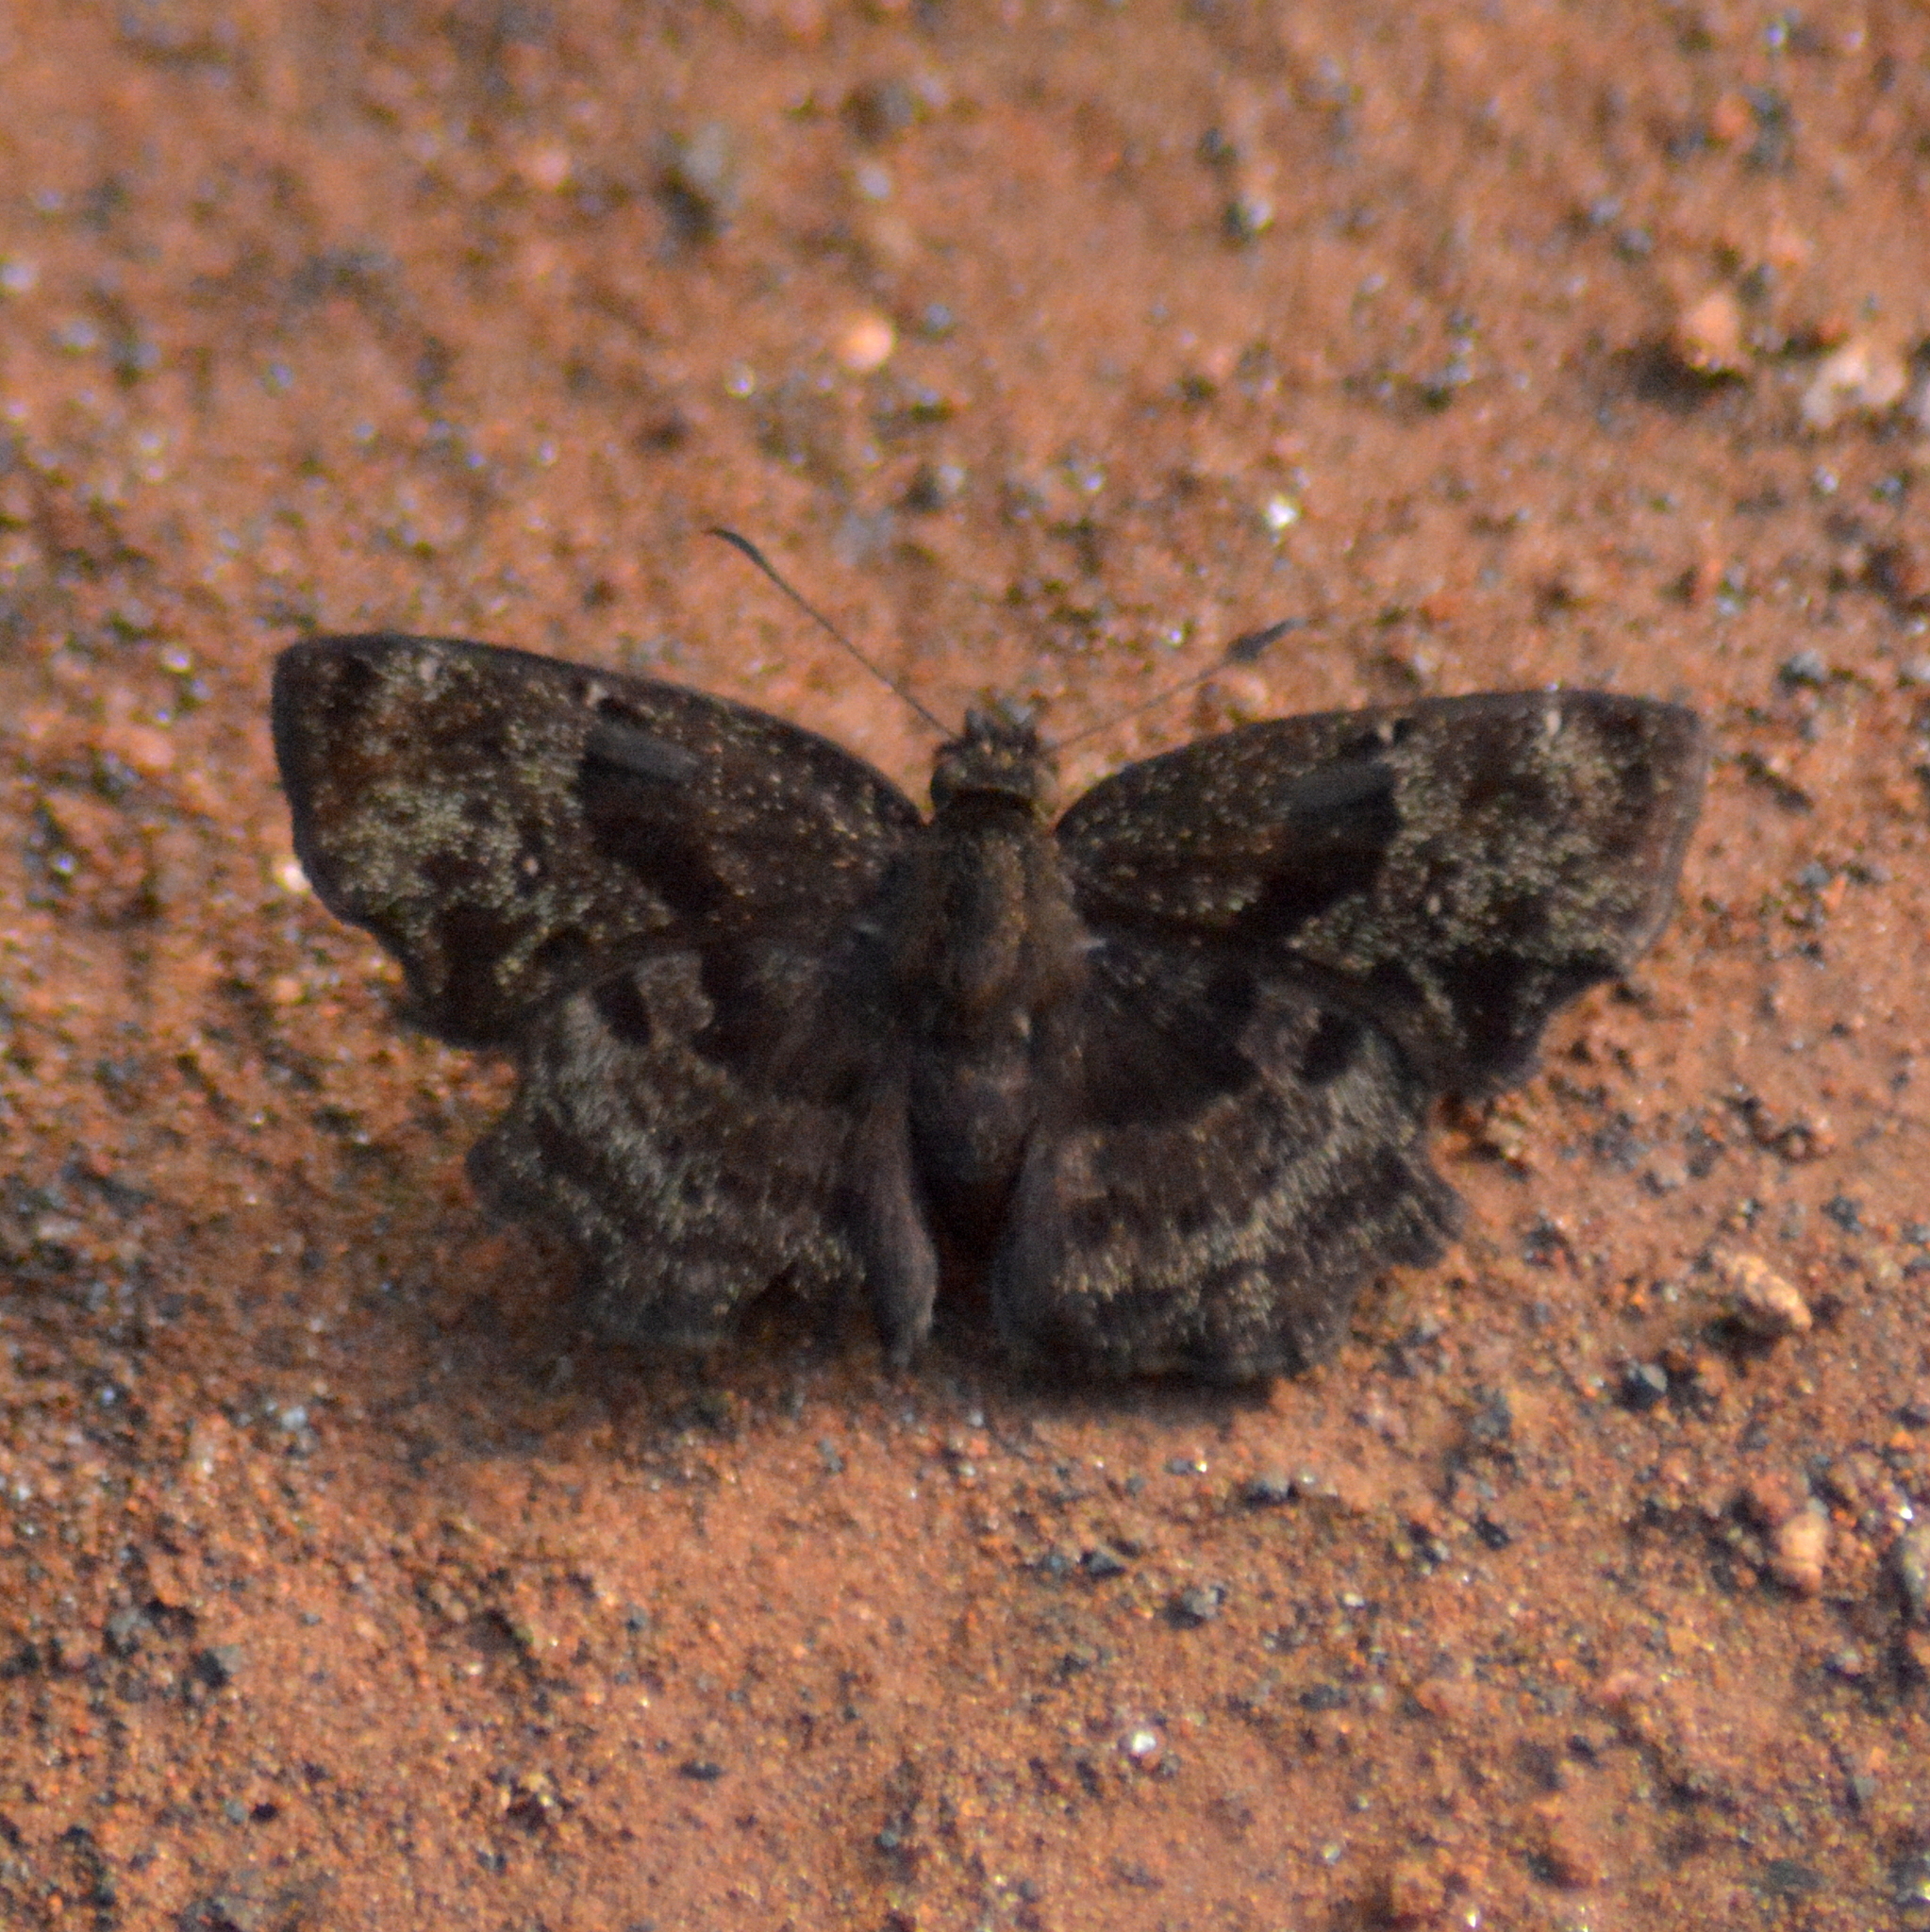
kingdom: Animalia
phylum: Arthropoda
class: Insecta
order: Lepidoptera
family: Hesperiidae
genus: Antigonus
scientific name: Antigonus liborius
